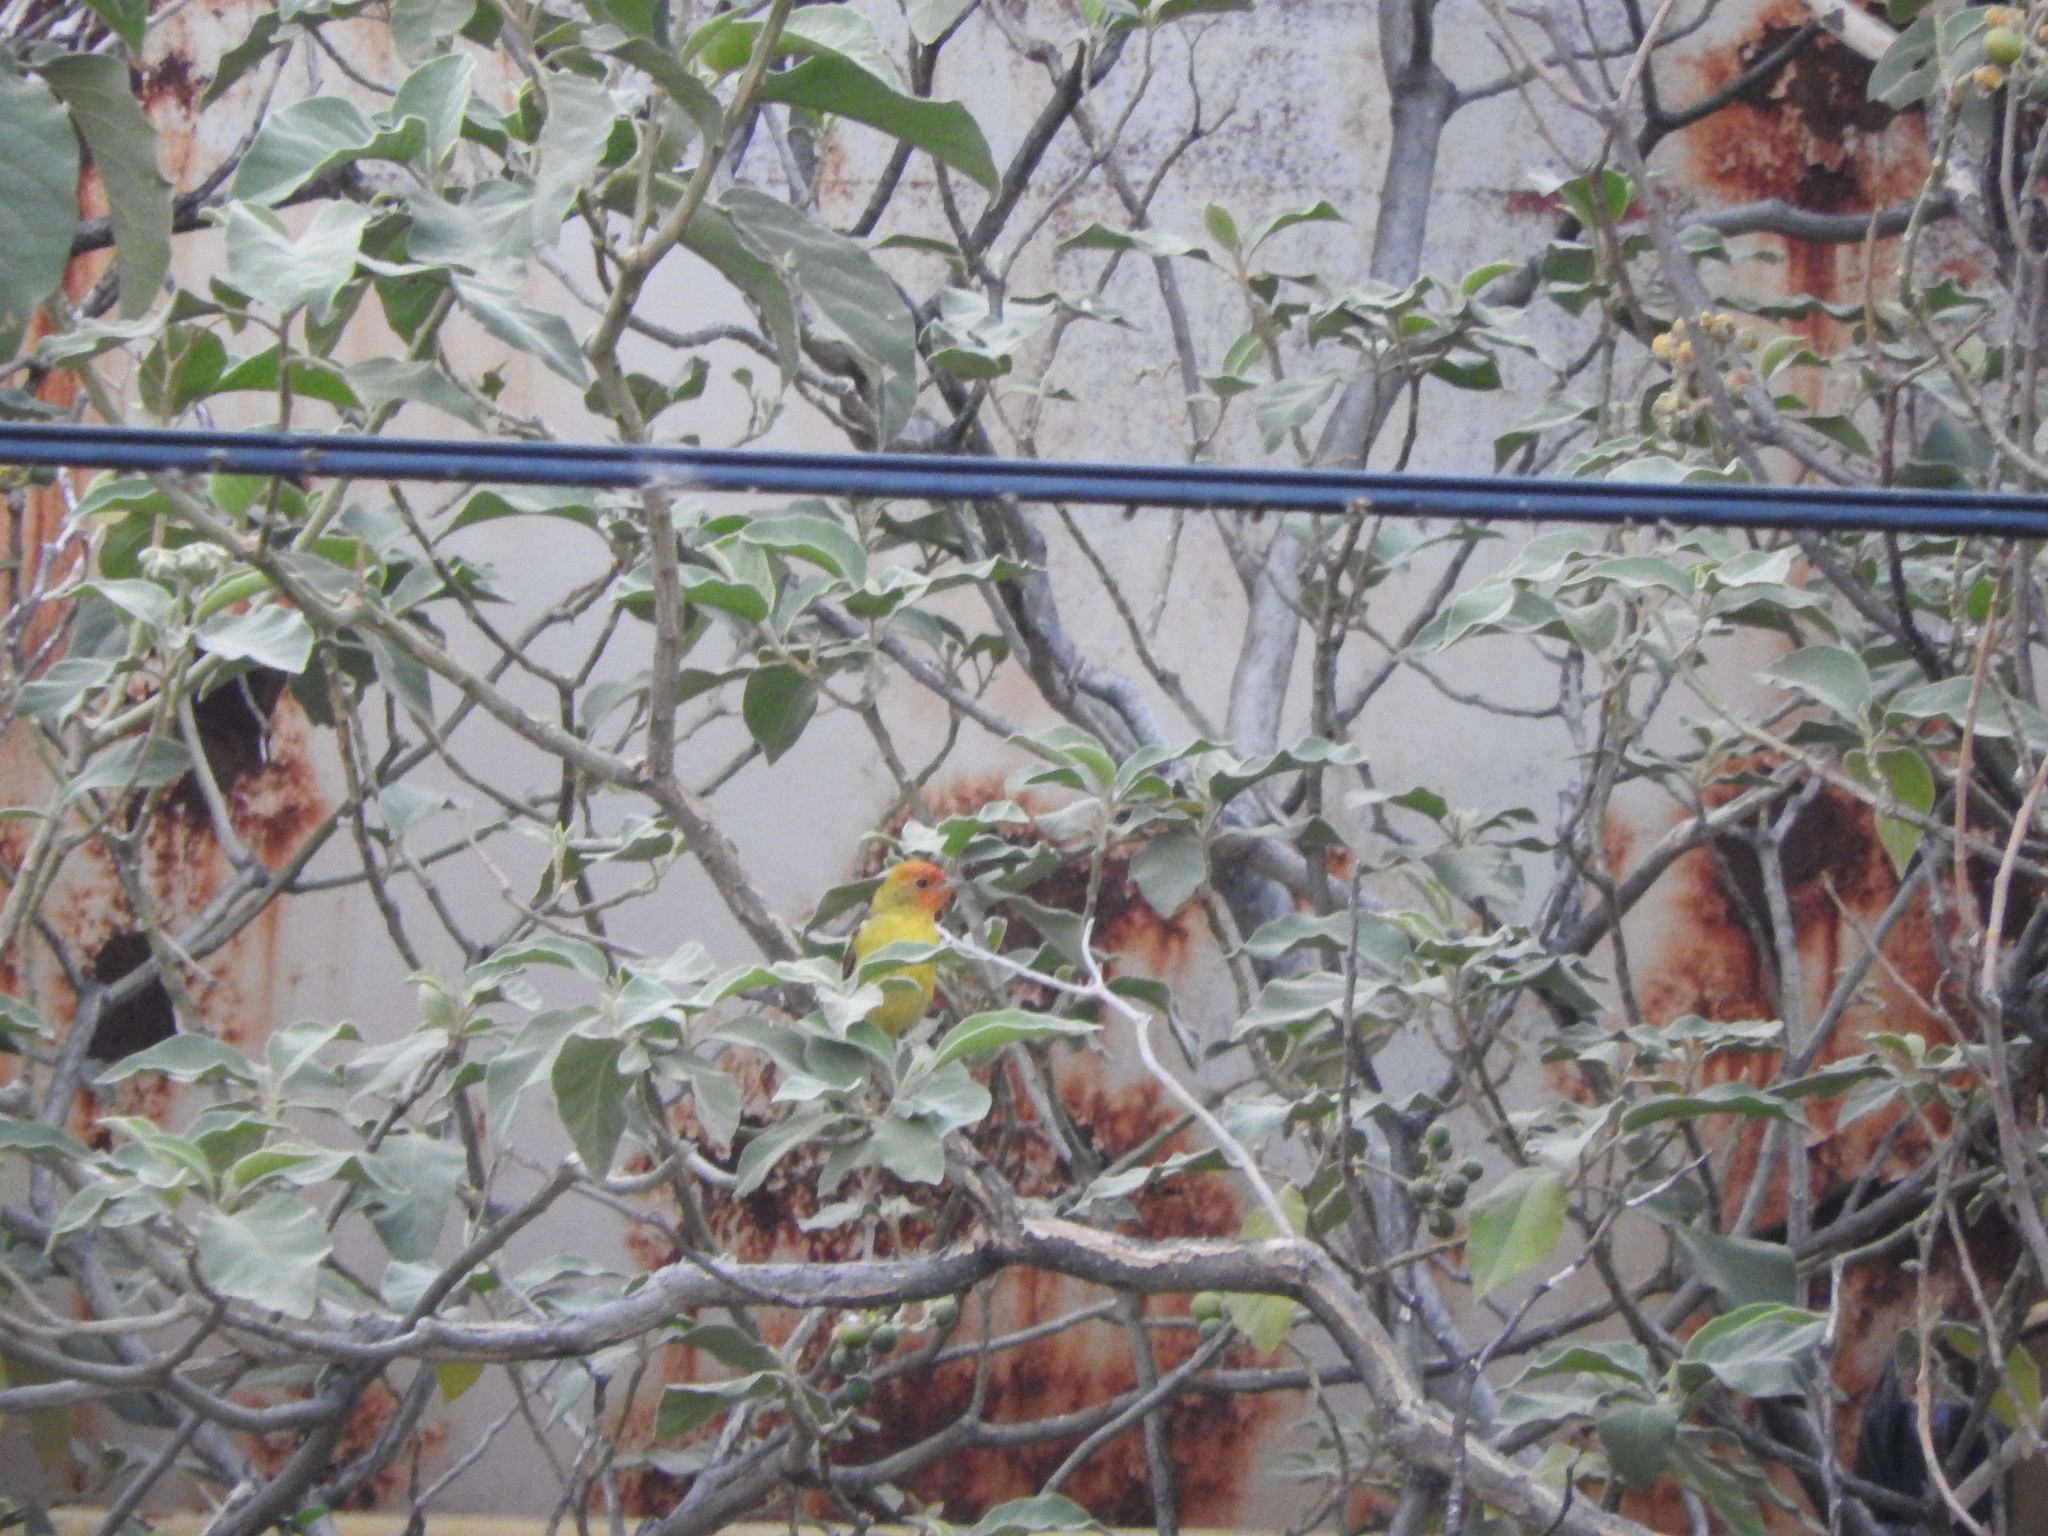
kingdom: Animalia
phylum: Chordata
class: Aves
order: Passeriformes
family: Cardinalidae
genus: Piranga
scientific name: Piranga ludoviciana
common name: Western tanager
